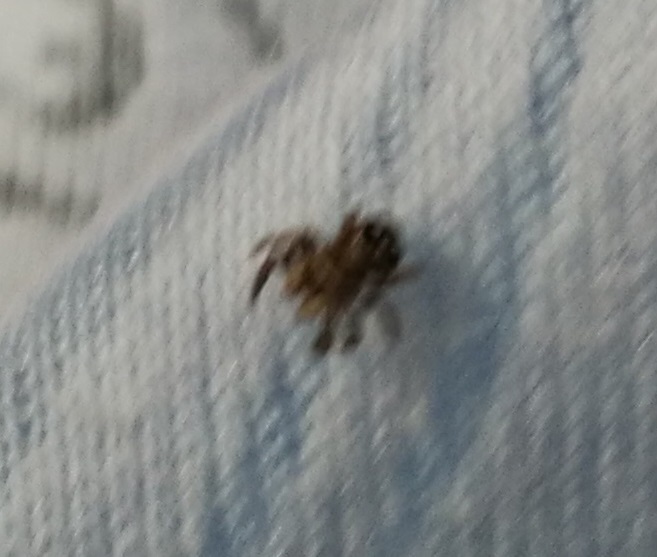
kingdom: Animalia
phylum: Arthropoda
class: Arachnida
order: Araneae
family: Salticidae
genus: Attulus
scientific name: Attulus zimmermanni
